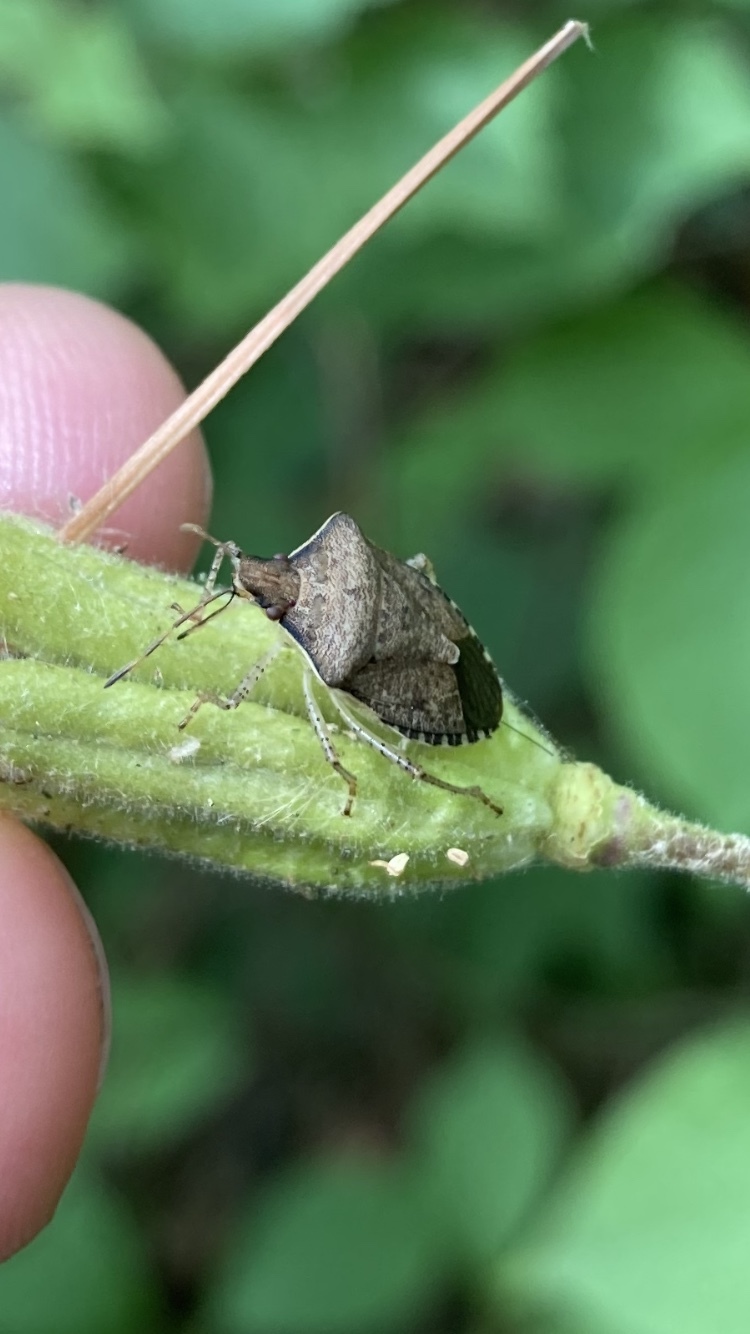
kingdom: Animalia
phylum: Arthropoda
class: Insecta
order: Hemiptera
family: Pentatomidae
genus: Euschistus
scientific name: Euschistus tristigmus
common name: Dusky stink bug
